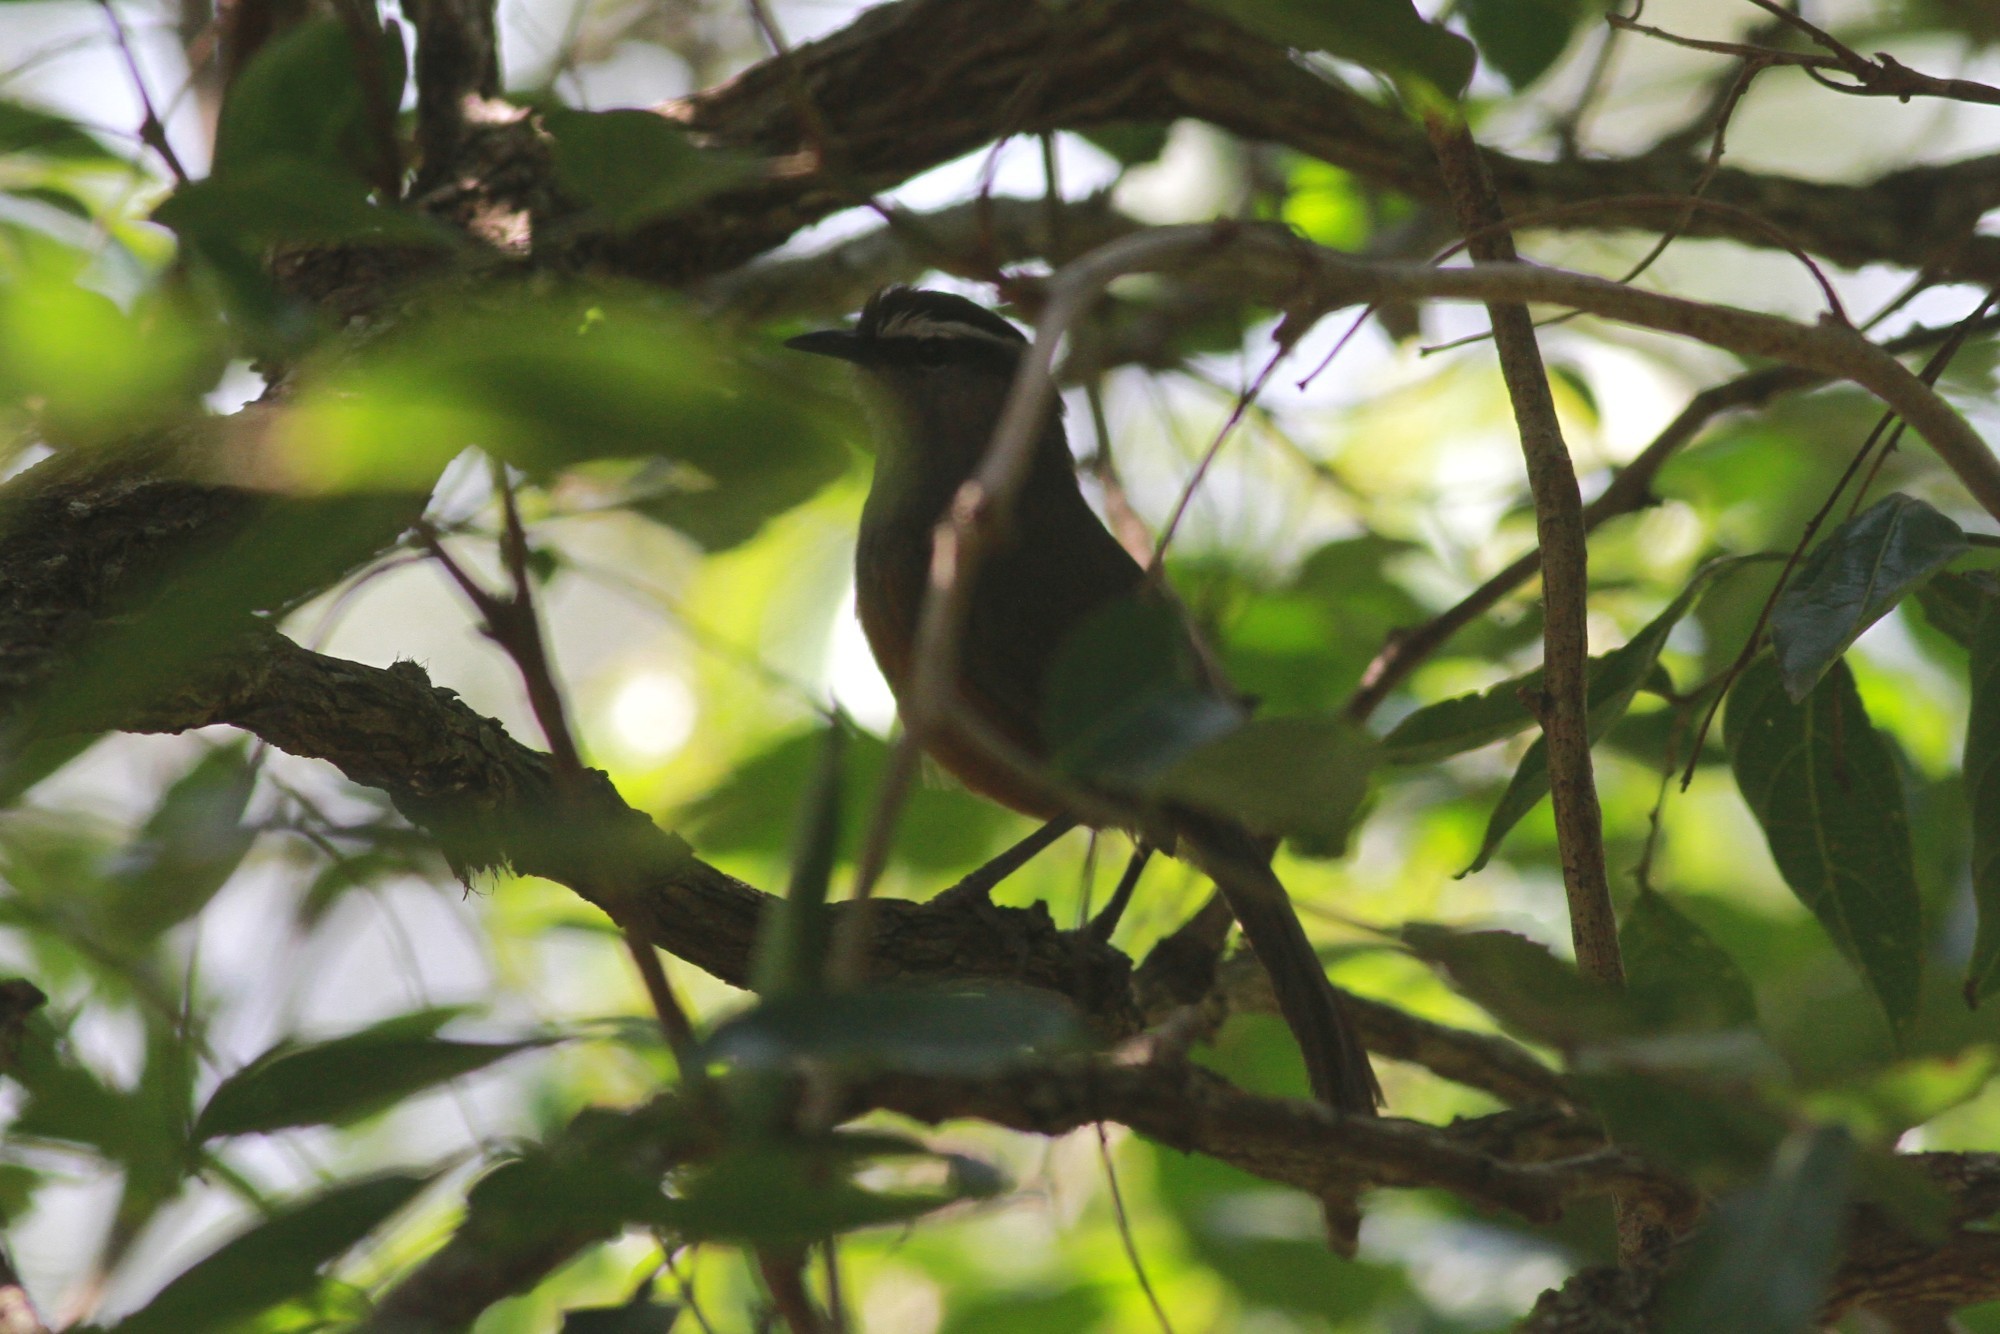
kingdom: Animalia
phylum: Chordata
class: Aves
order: Passeriformes
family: Leiothrichidae
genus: Trochalopteron
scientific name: Trochalopteron fairbanki
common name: Kerala laughingthrush
